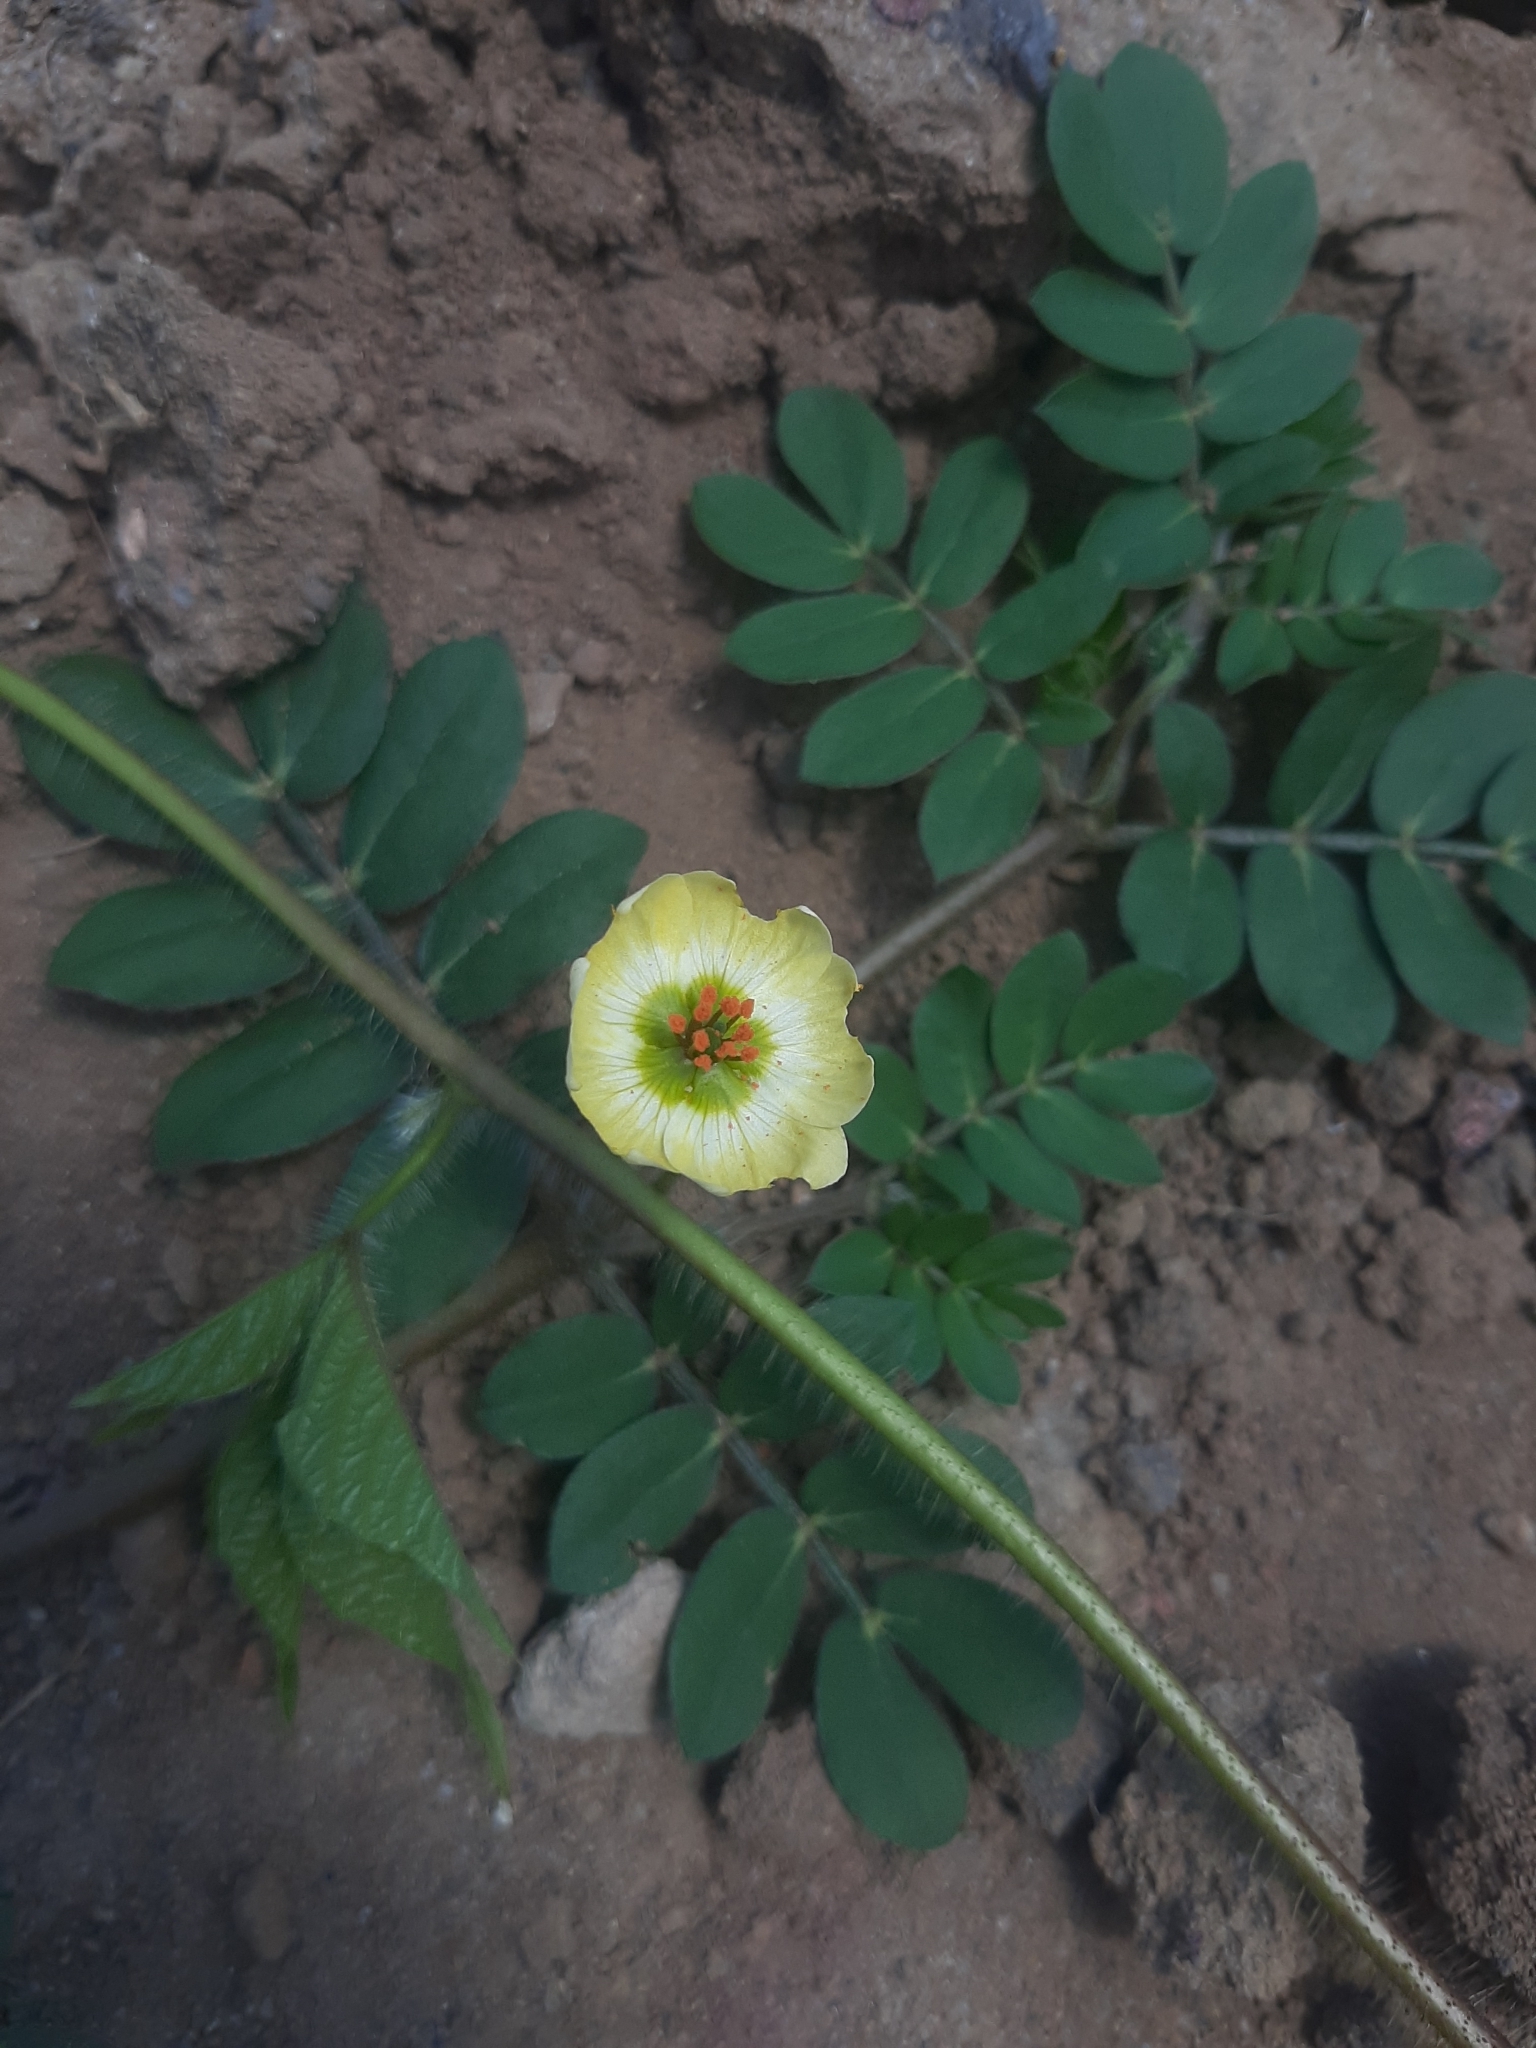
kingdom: Plantae
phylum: Tracheophyta
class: Magnoliopsida
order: Zygophyllales
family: Zygophyllaceae
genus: Kallstroemia
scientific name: Kallstroemia maxima
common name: Big caltropa
